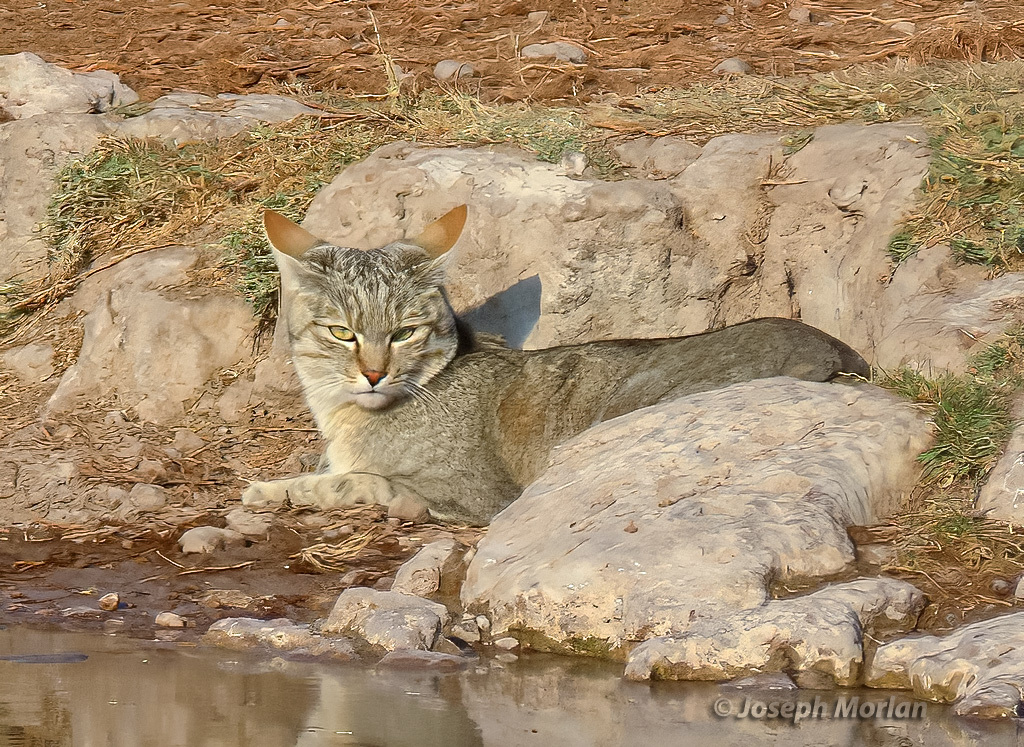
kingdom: Animalia
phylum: Chordata
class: Mammalia
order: Carnivora
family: Felidae
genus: Felis
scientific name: Felis silvestris
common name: Wildcat
